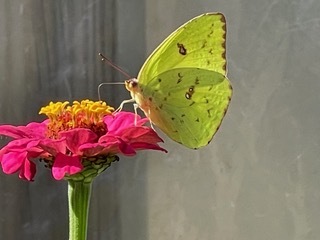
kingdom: Animalia
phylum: Arthropoda
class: Insecta
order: Lepidoptera
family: Pieridae
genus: Phoebis
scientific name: Phoebis sennae
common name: Cloudless sulphur
